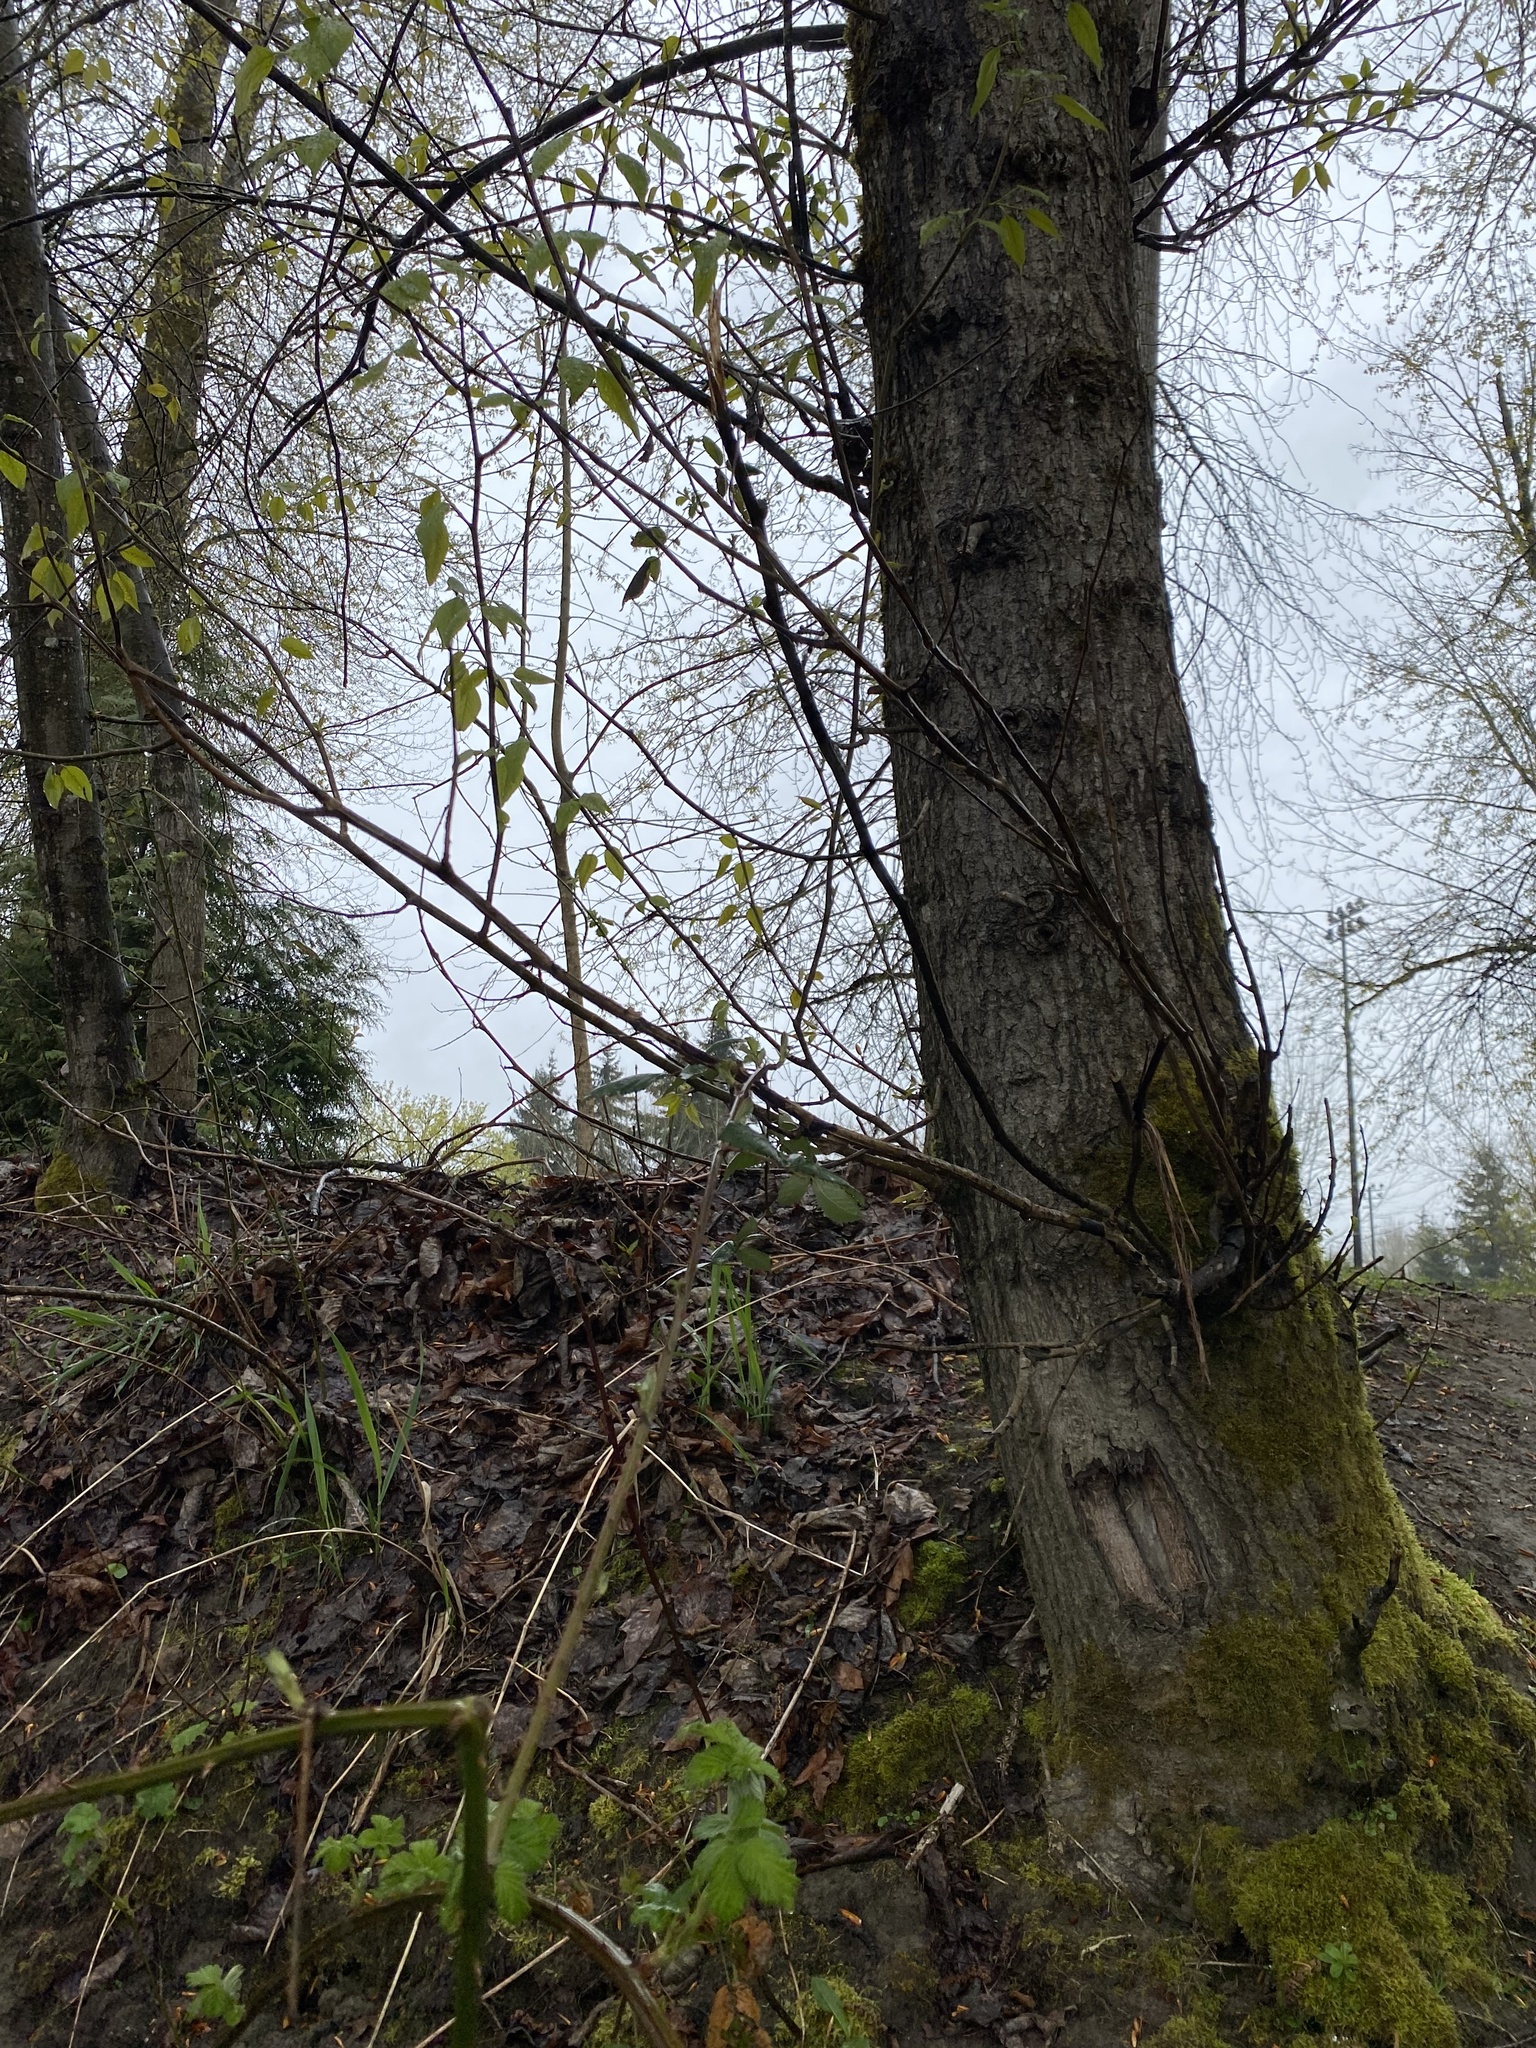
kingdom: Plantae
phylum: Tracheophyta
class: Magnoliopsida
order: Malpighiales
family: Salicaceae
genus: Populus
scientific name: Populus trichocarpa
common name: Black cottonwood
